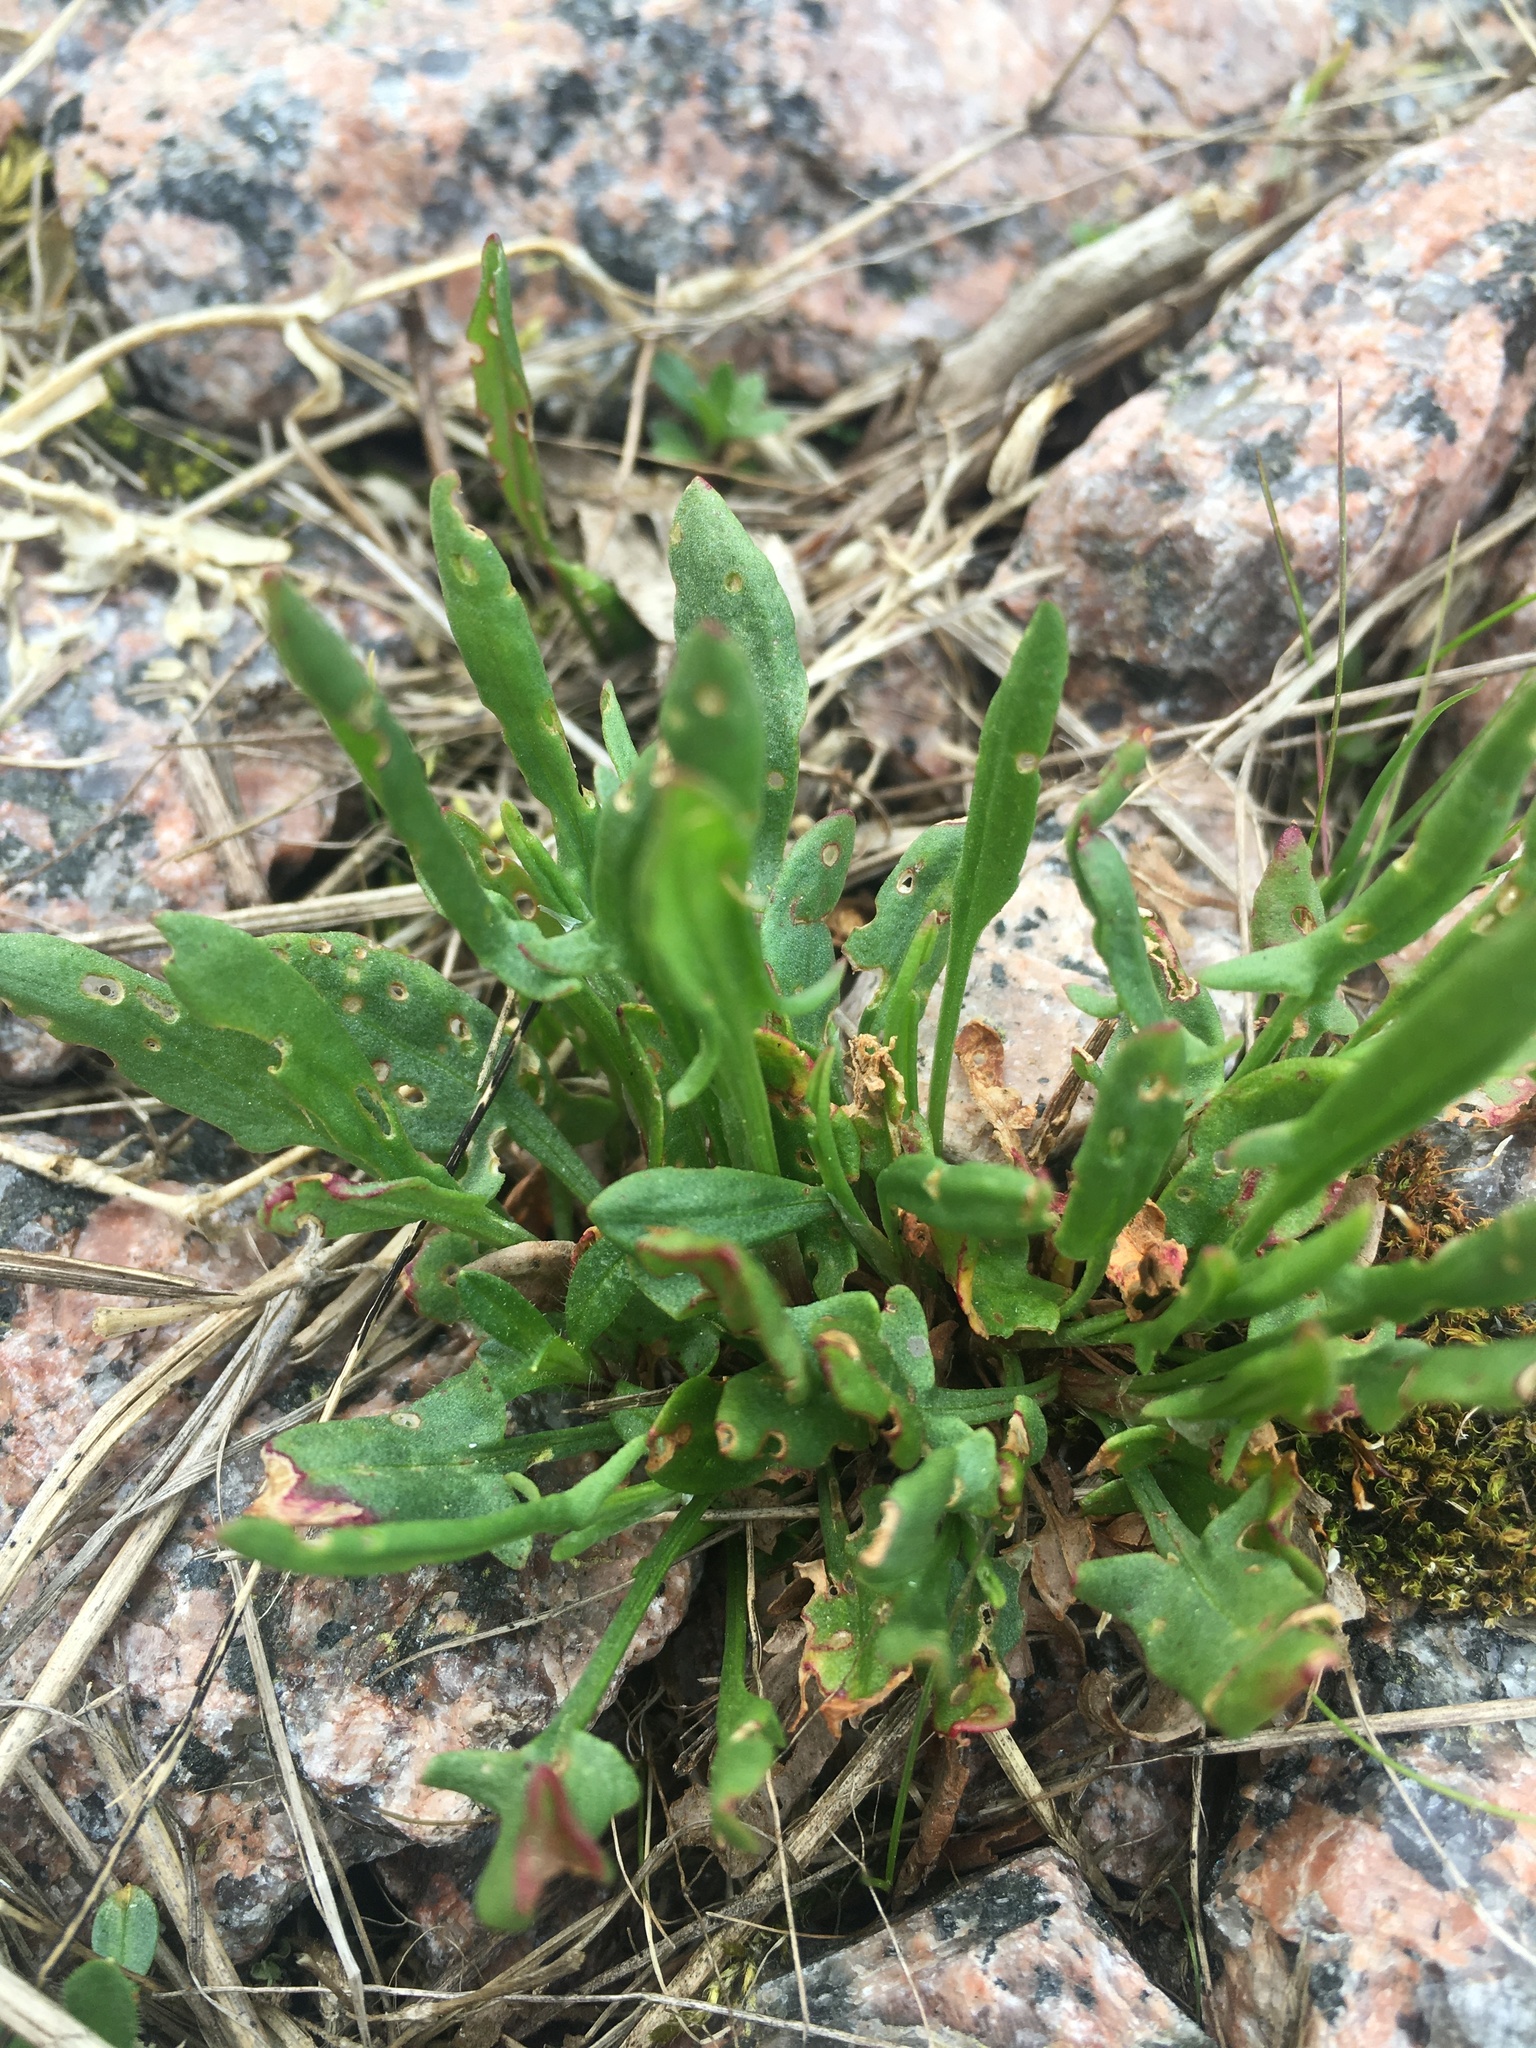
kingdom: Plantae
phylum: Tracheophyta
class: Magnoliopsida
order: Caryophyllales
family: Polygonaceae
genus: Rumex
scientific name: Rumex acetosella
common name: Common sheep sorrel
